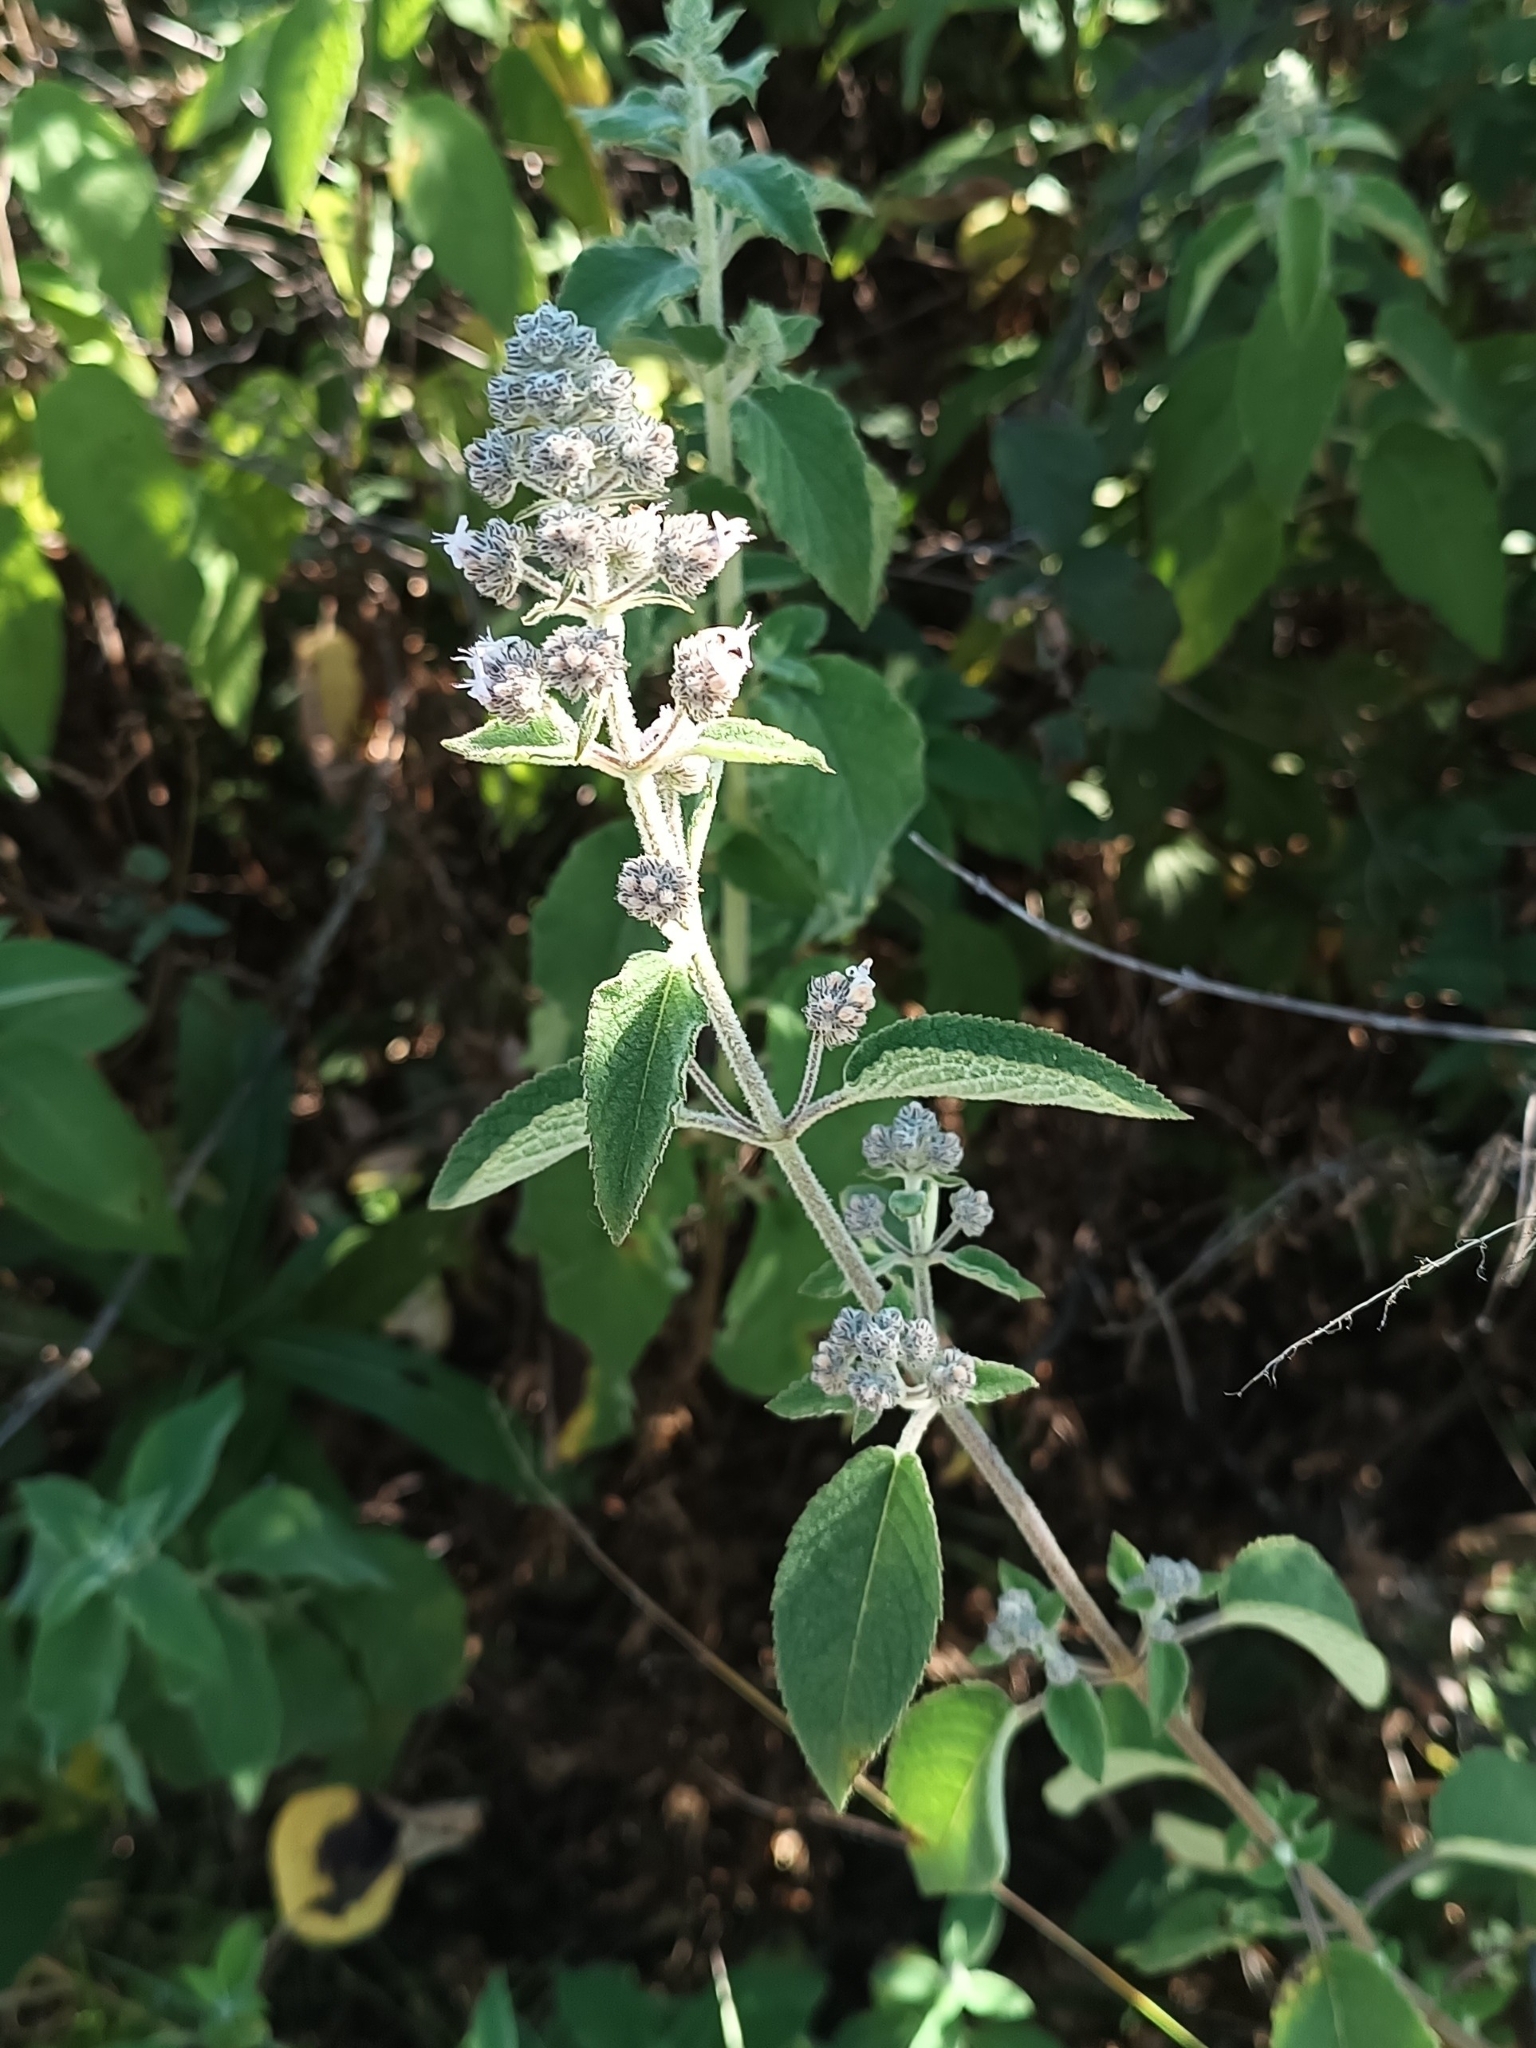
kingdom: Plantae
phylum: Tracheophyta
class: Magnoliopsida
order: Lamiales
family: Lamiaceae
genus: Mesosphaerum
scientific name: Mesosphaerum oblongifolium
